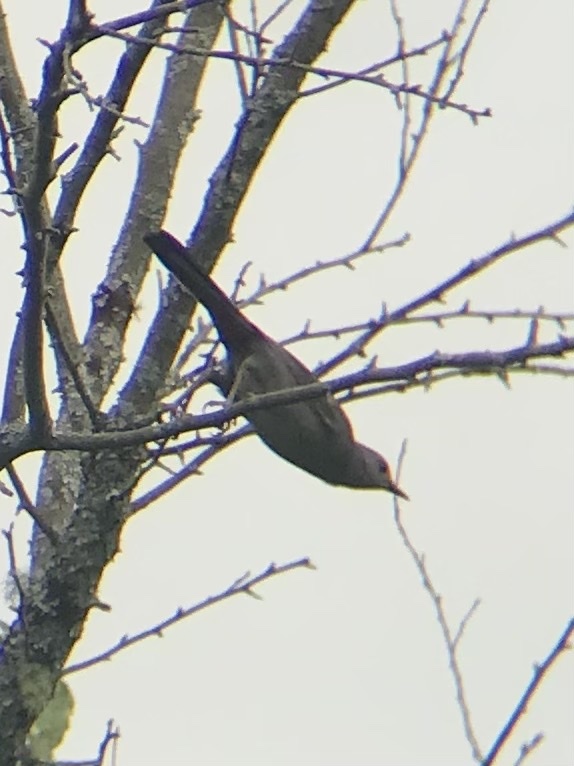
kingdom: Animalia
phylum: Chordata
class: Aves
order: Passeriformes
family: Mimidae
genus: Dumetella
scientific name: Dumetella carolinensis
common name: Gray catbird
